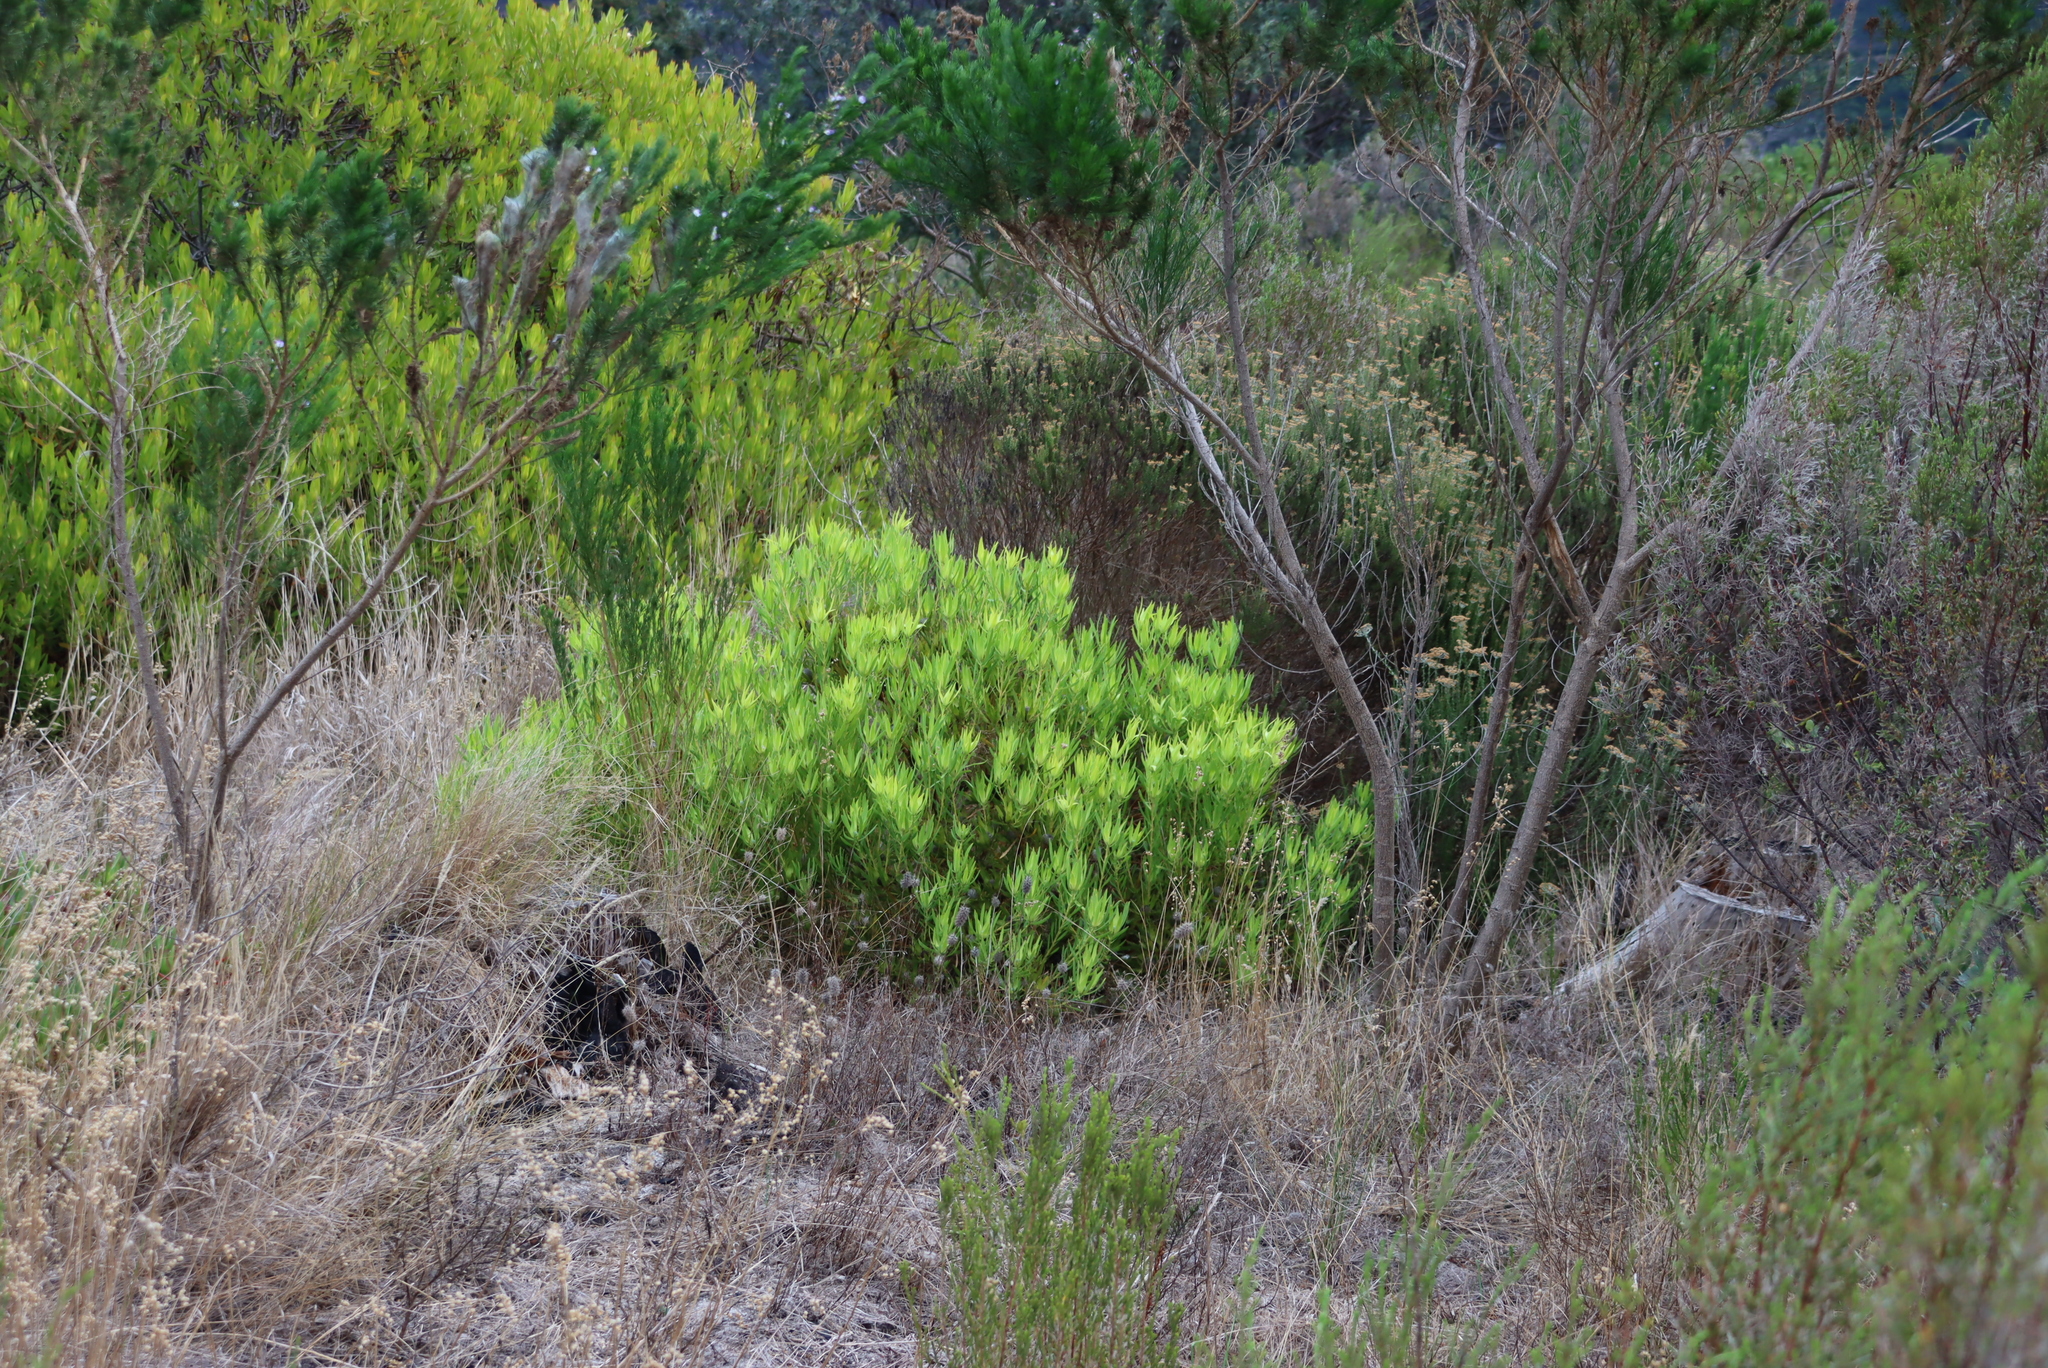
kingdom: Plantae
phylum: Tracheophyta
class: Magnoliopsida
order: Proteales
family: Proteaceae
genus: Leucadendron
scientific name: Leucadendron salignum
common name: Common sunshine conebush
